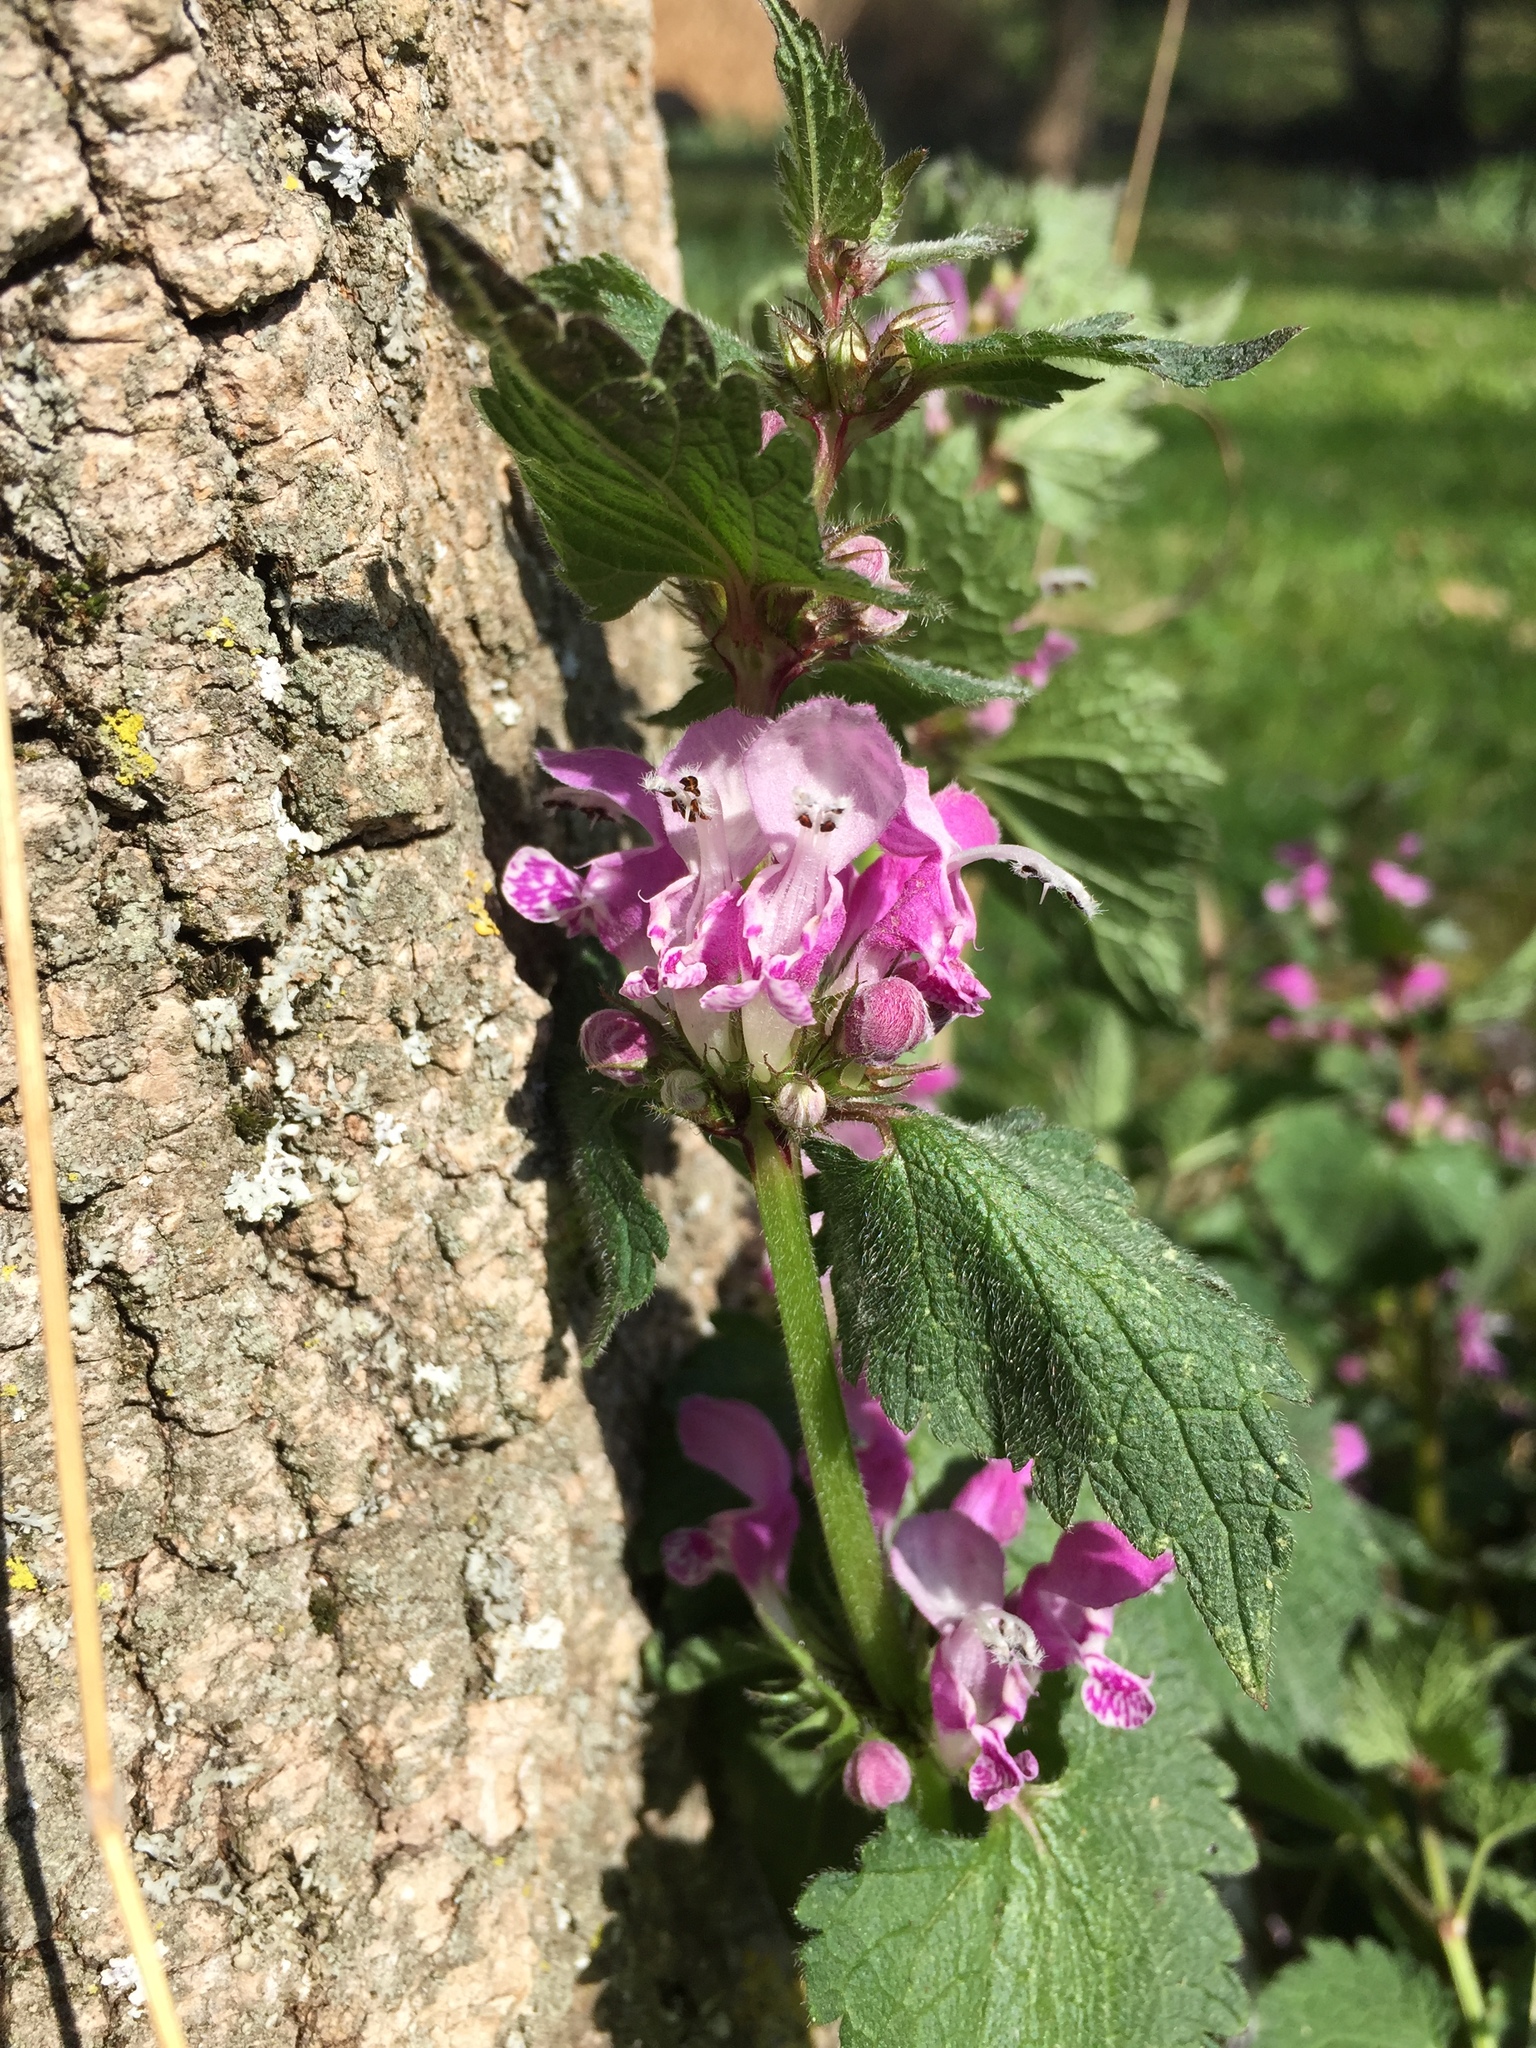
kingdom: Plantae
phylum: Tracheophyta
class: Magnoliopsida
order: Lamiales
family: Lamiaceae
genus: Lamium
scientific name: Lamium maculatum
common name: Spotted dead-nettle
